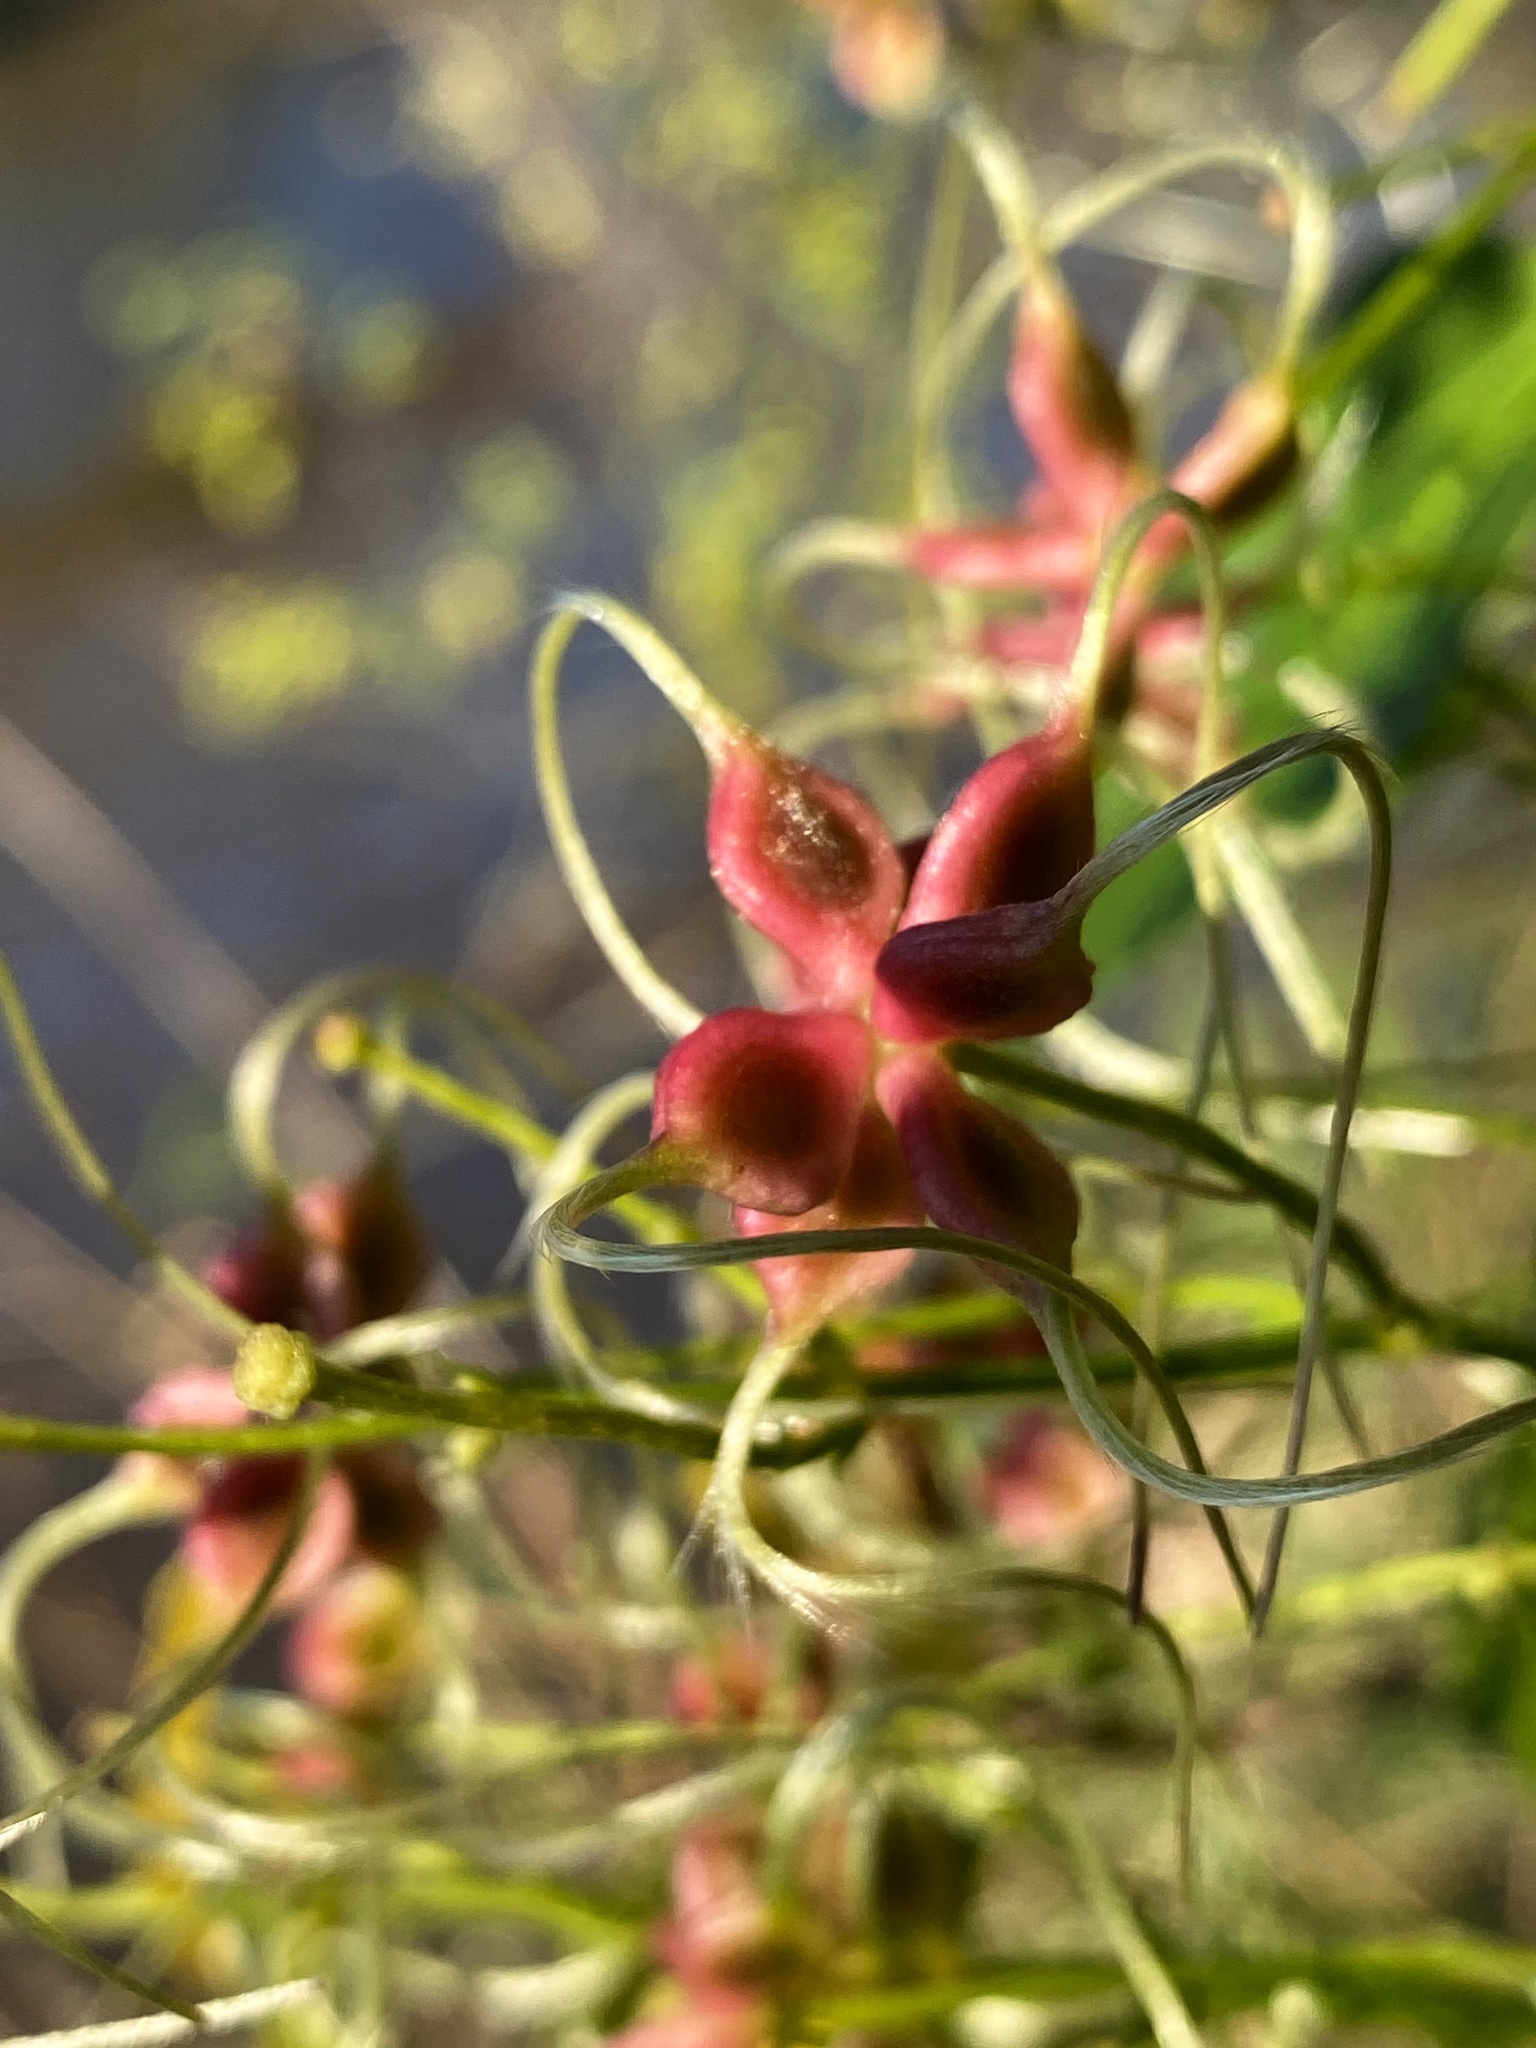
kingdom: Plantae
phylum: Tracheophyta
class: Magnoliopsida
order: Ranunculales
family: Ranunculaceae
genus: Clematis
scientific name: Clematis terniflora
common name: Sweet autumn clematis
